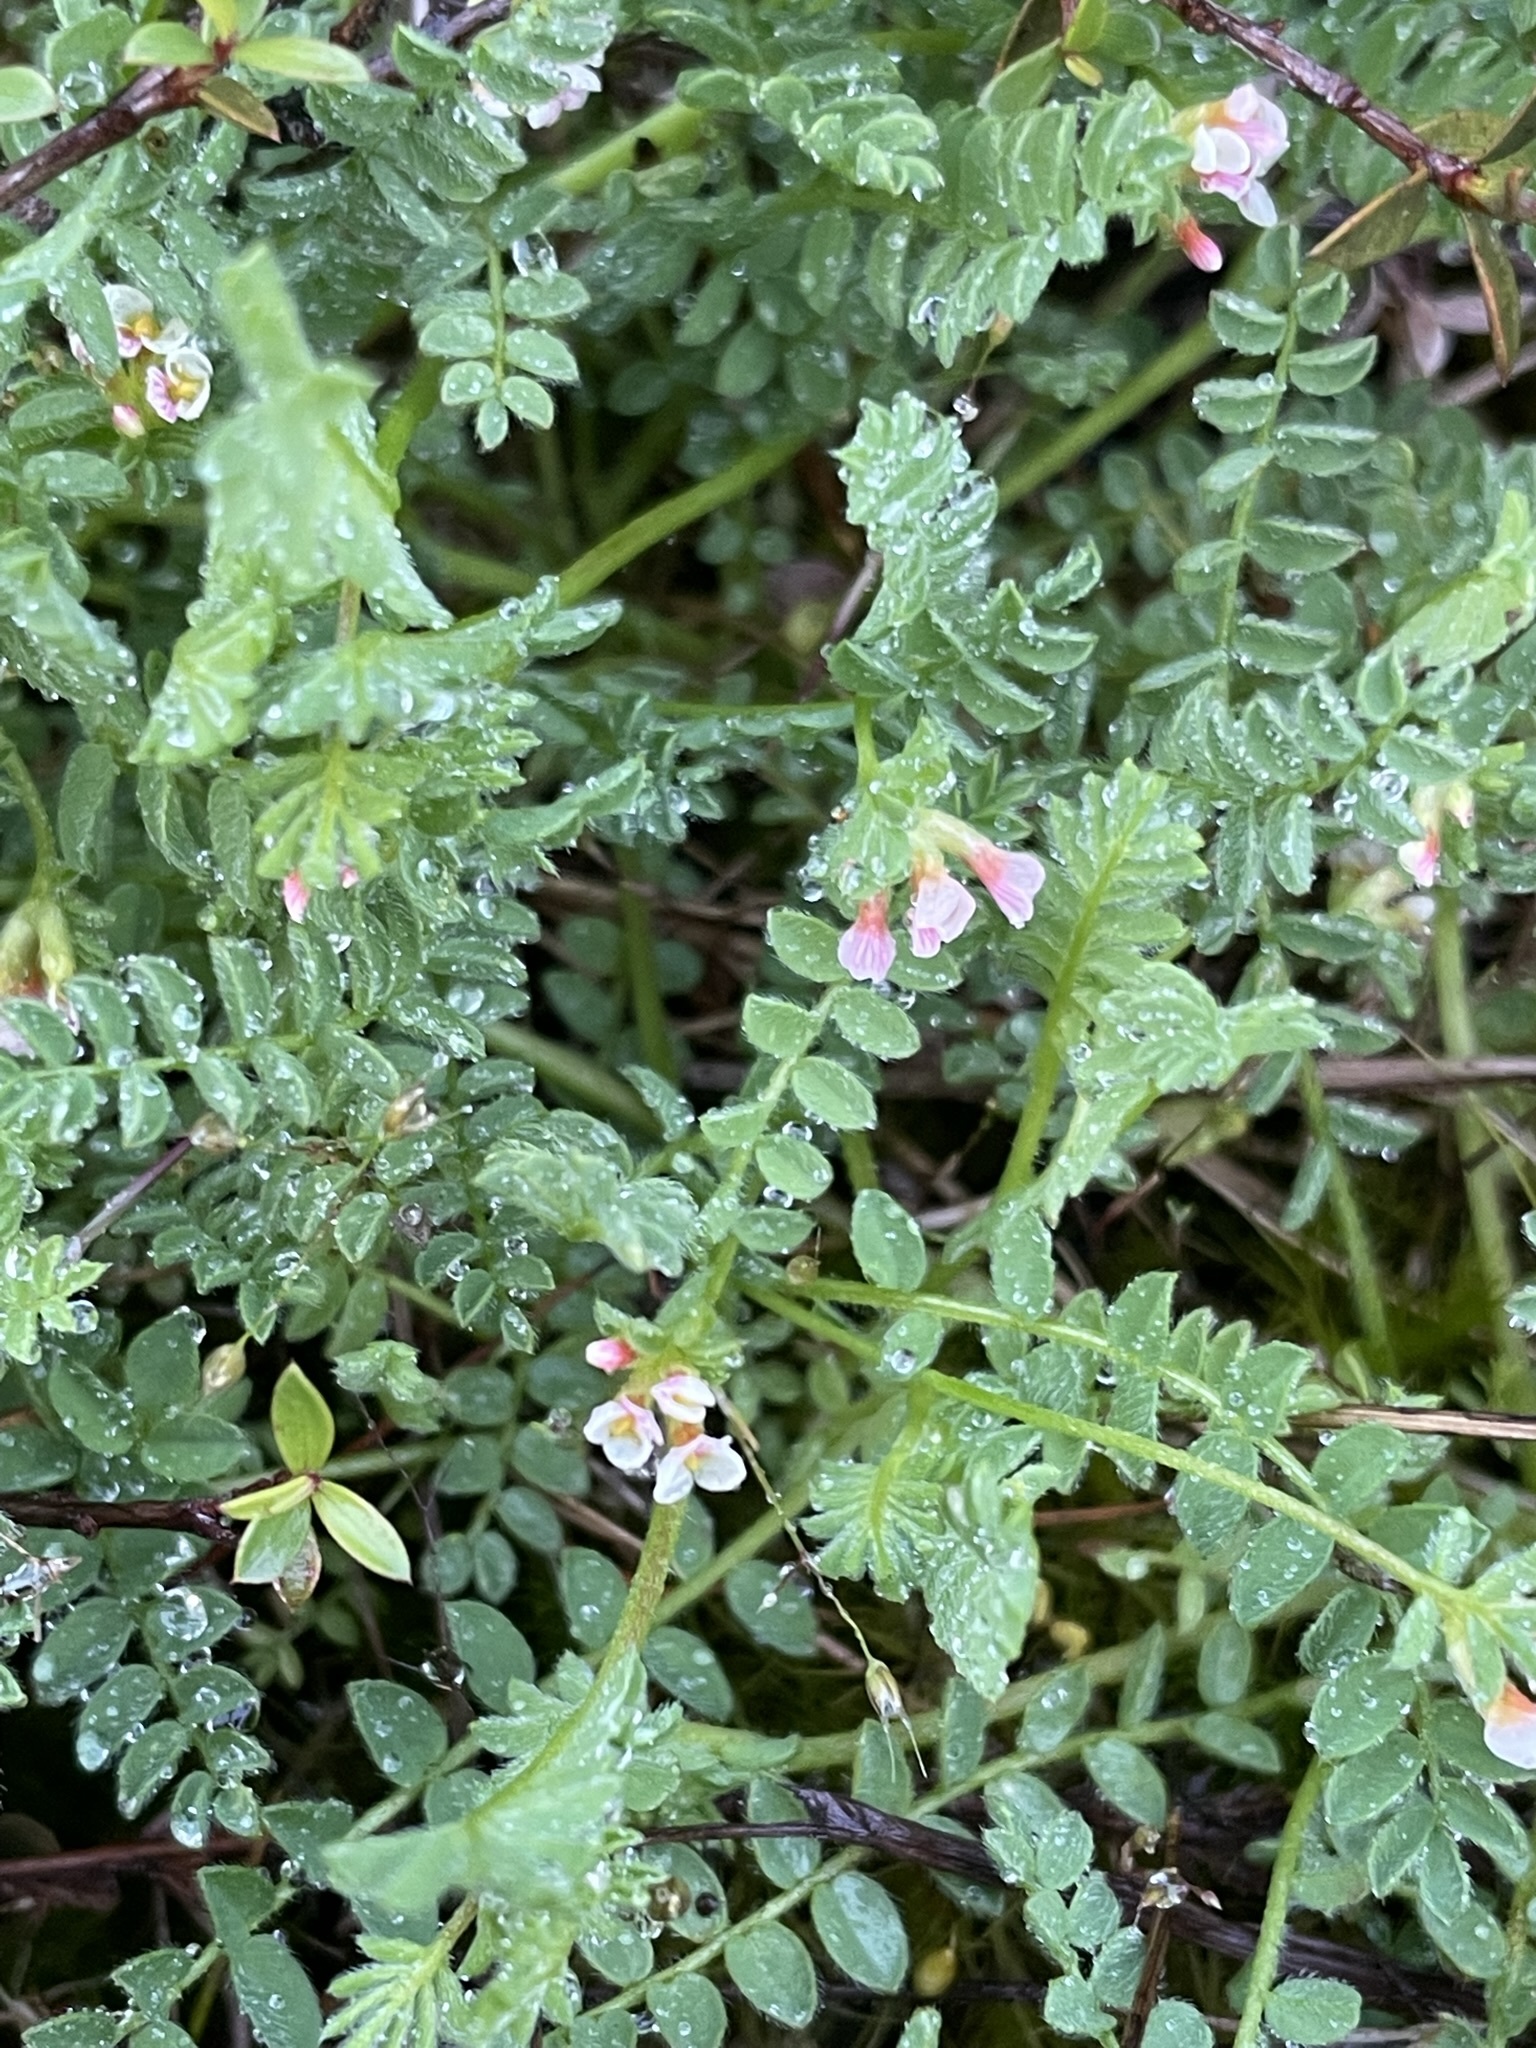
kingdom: Plantae
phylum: Tracheophyta
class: Magnoliopsida
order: Fabales
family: Fabaceae
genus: Ornithopus
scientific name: Ornithopus perpusillus
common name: Bird's-foot
